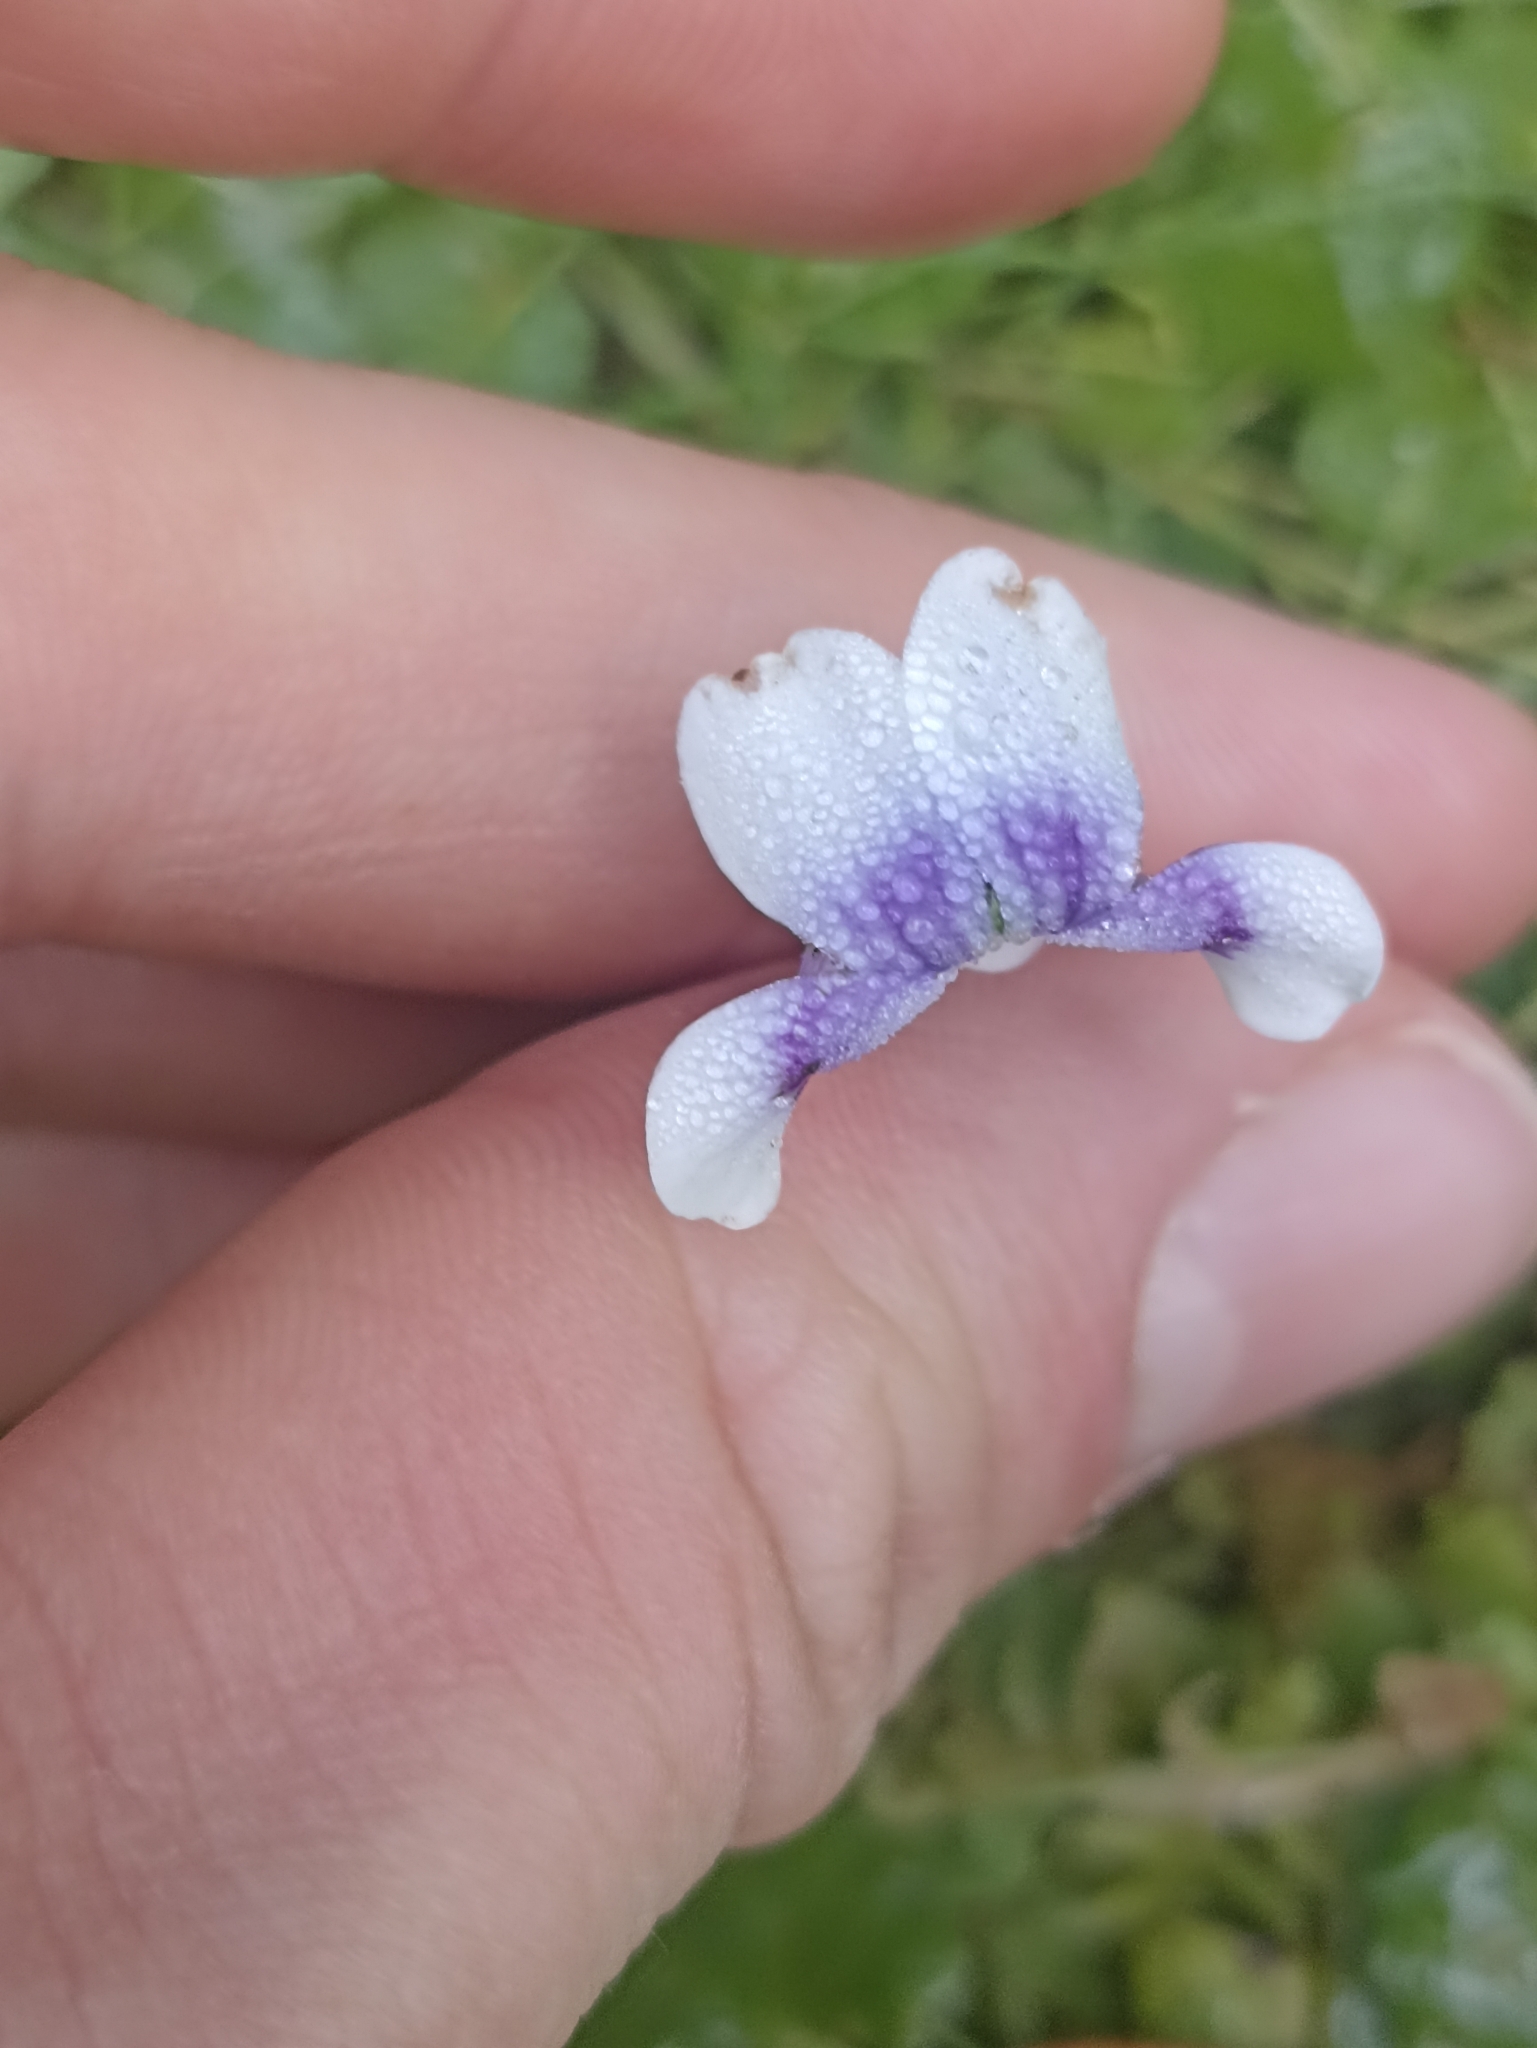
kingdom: Plantae
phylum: Tracheophyta
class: Magnoliopsida
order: Malpighiales
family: Violaceae
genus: Viola
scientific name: Viola banksii
